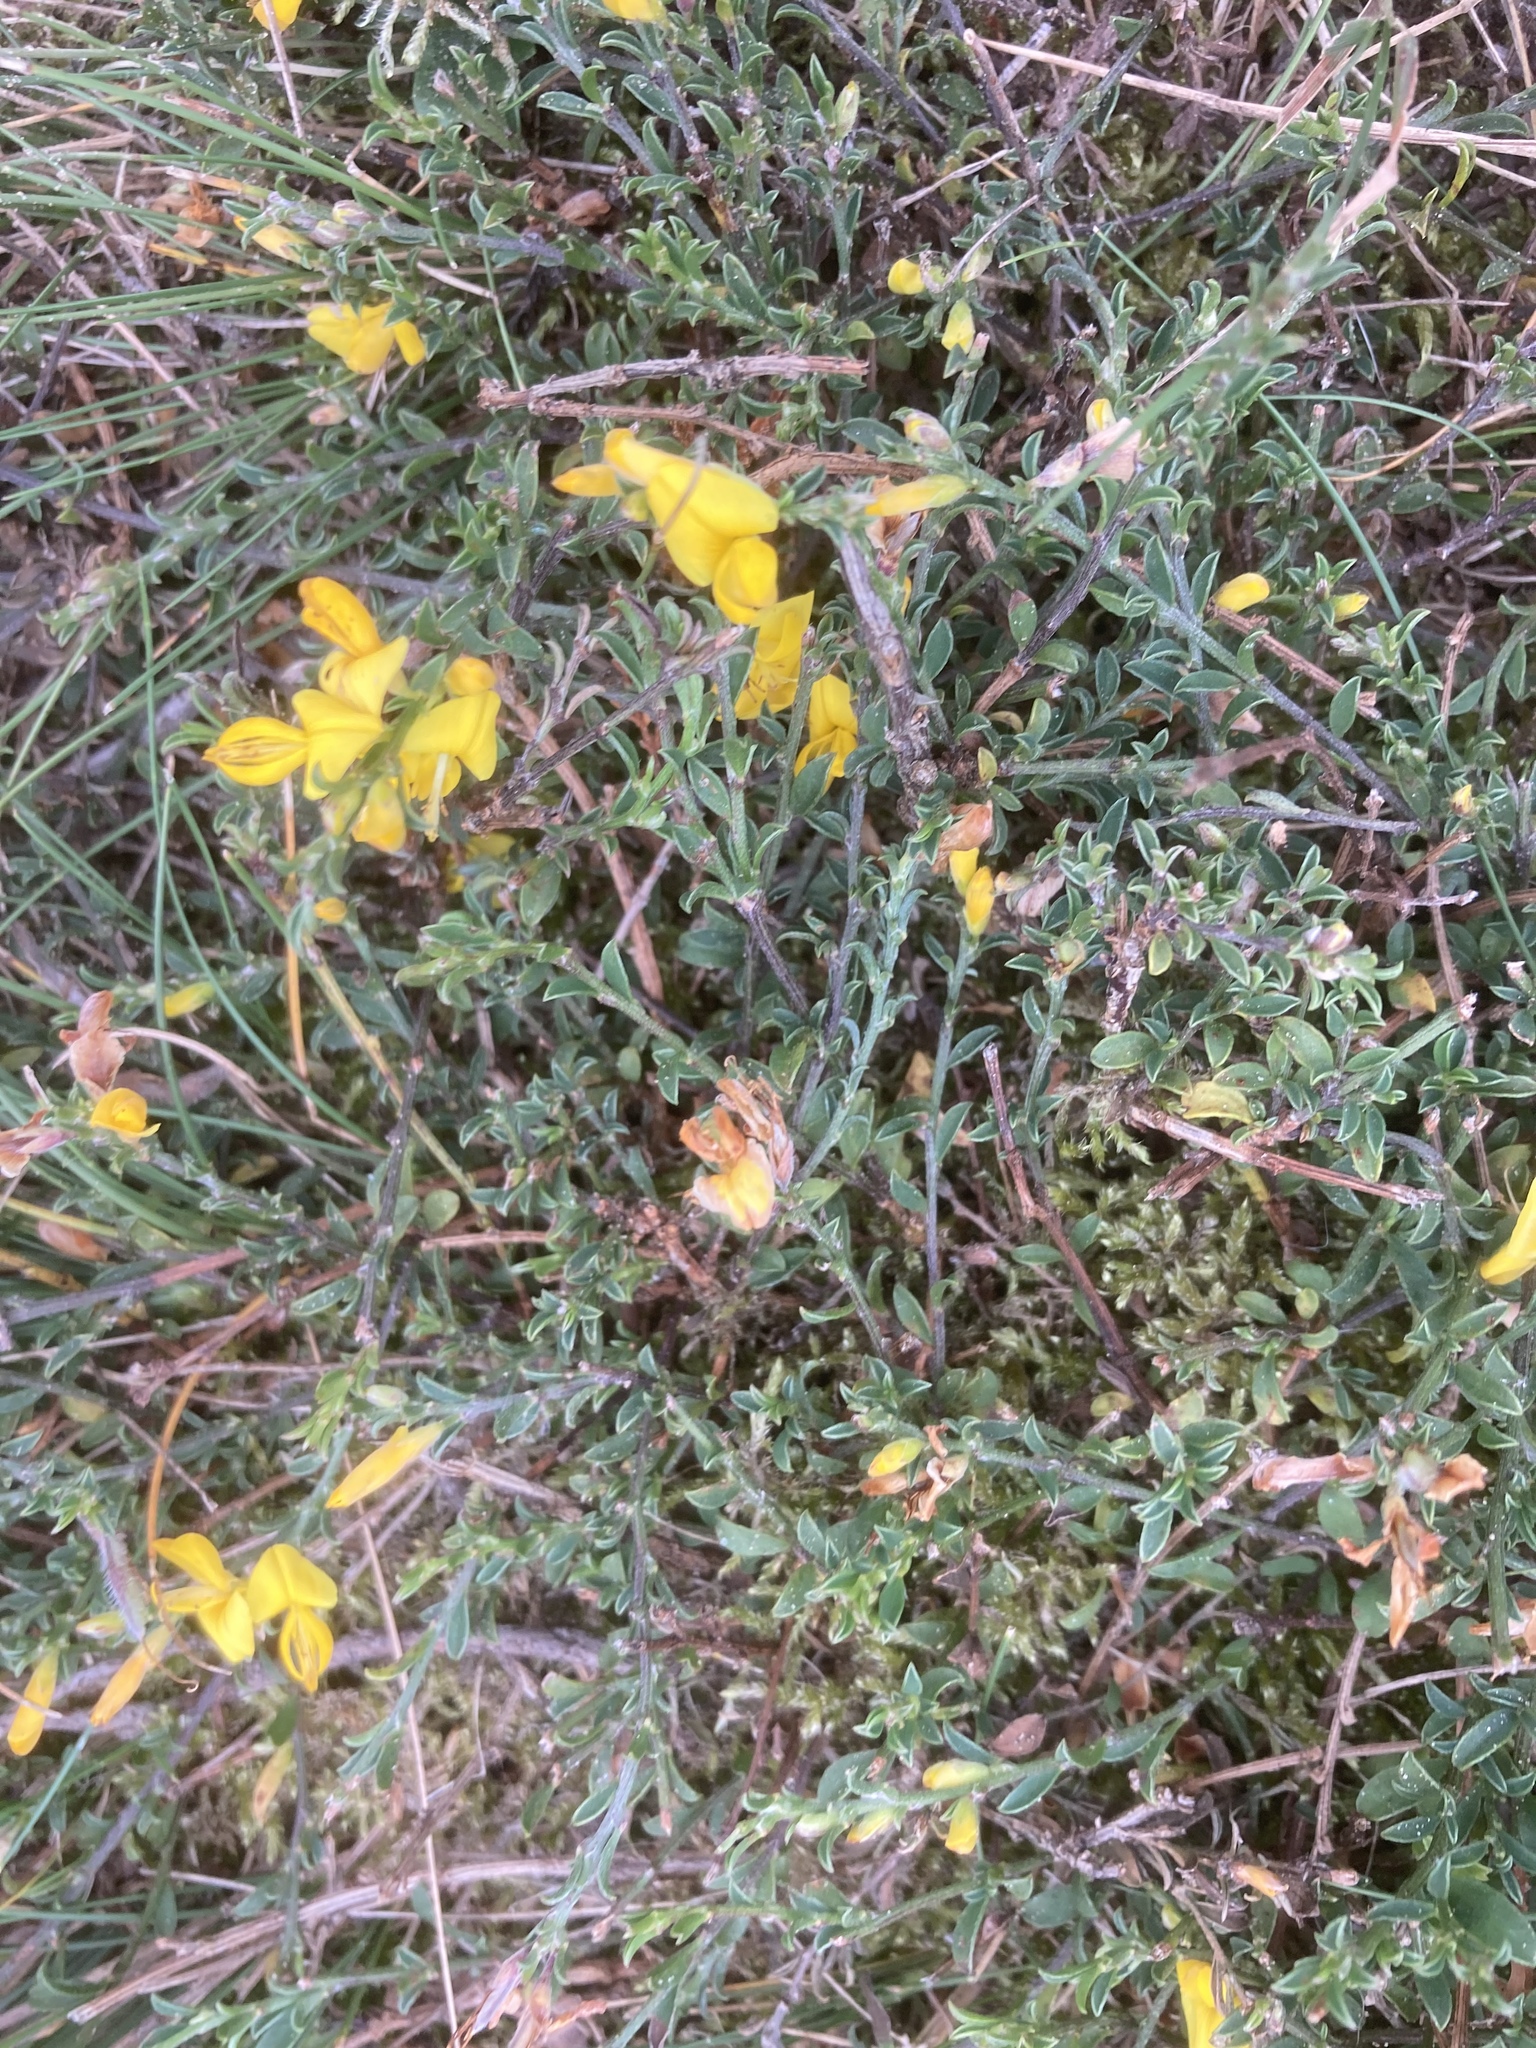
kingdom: Plantae
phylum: Tracheophyta
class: Magnoliopsida
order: Fabales
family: Fabaceae
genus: Genista
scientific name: Genista pilosa
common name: Hairy greenweed
